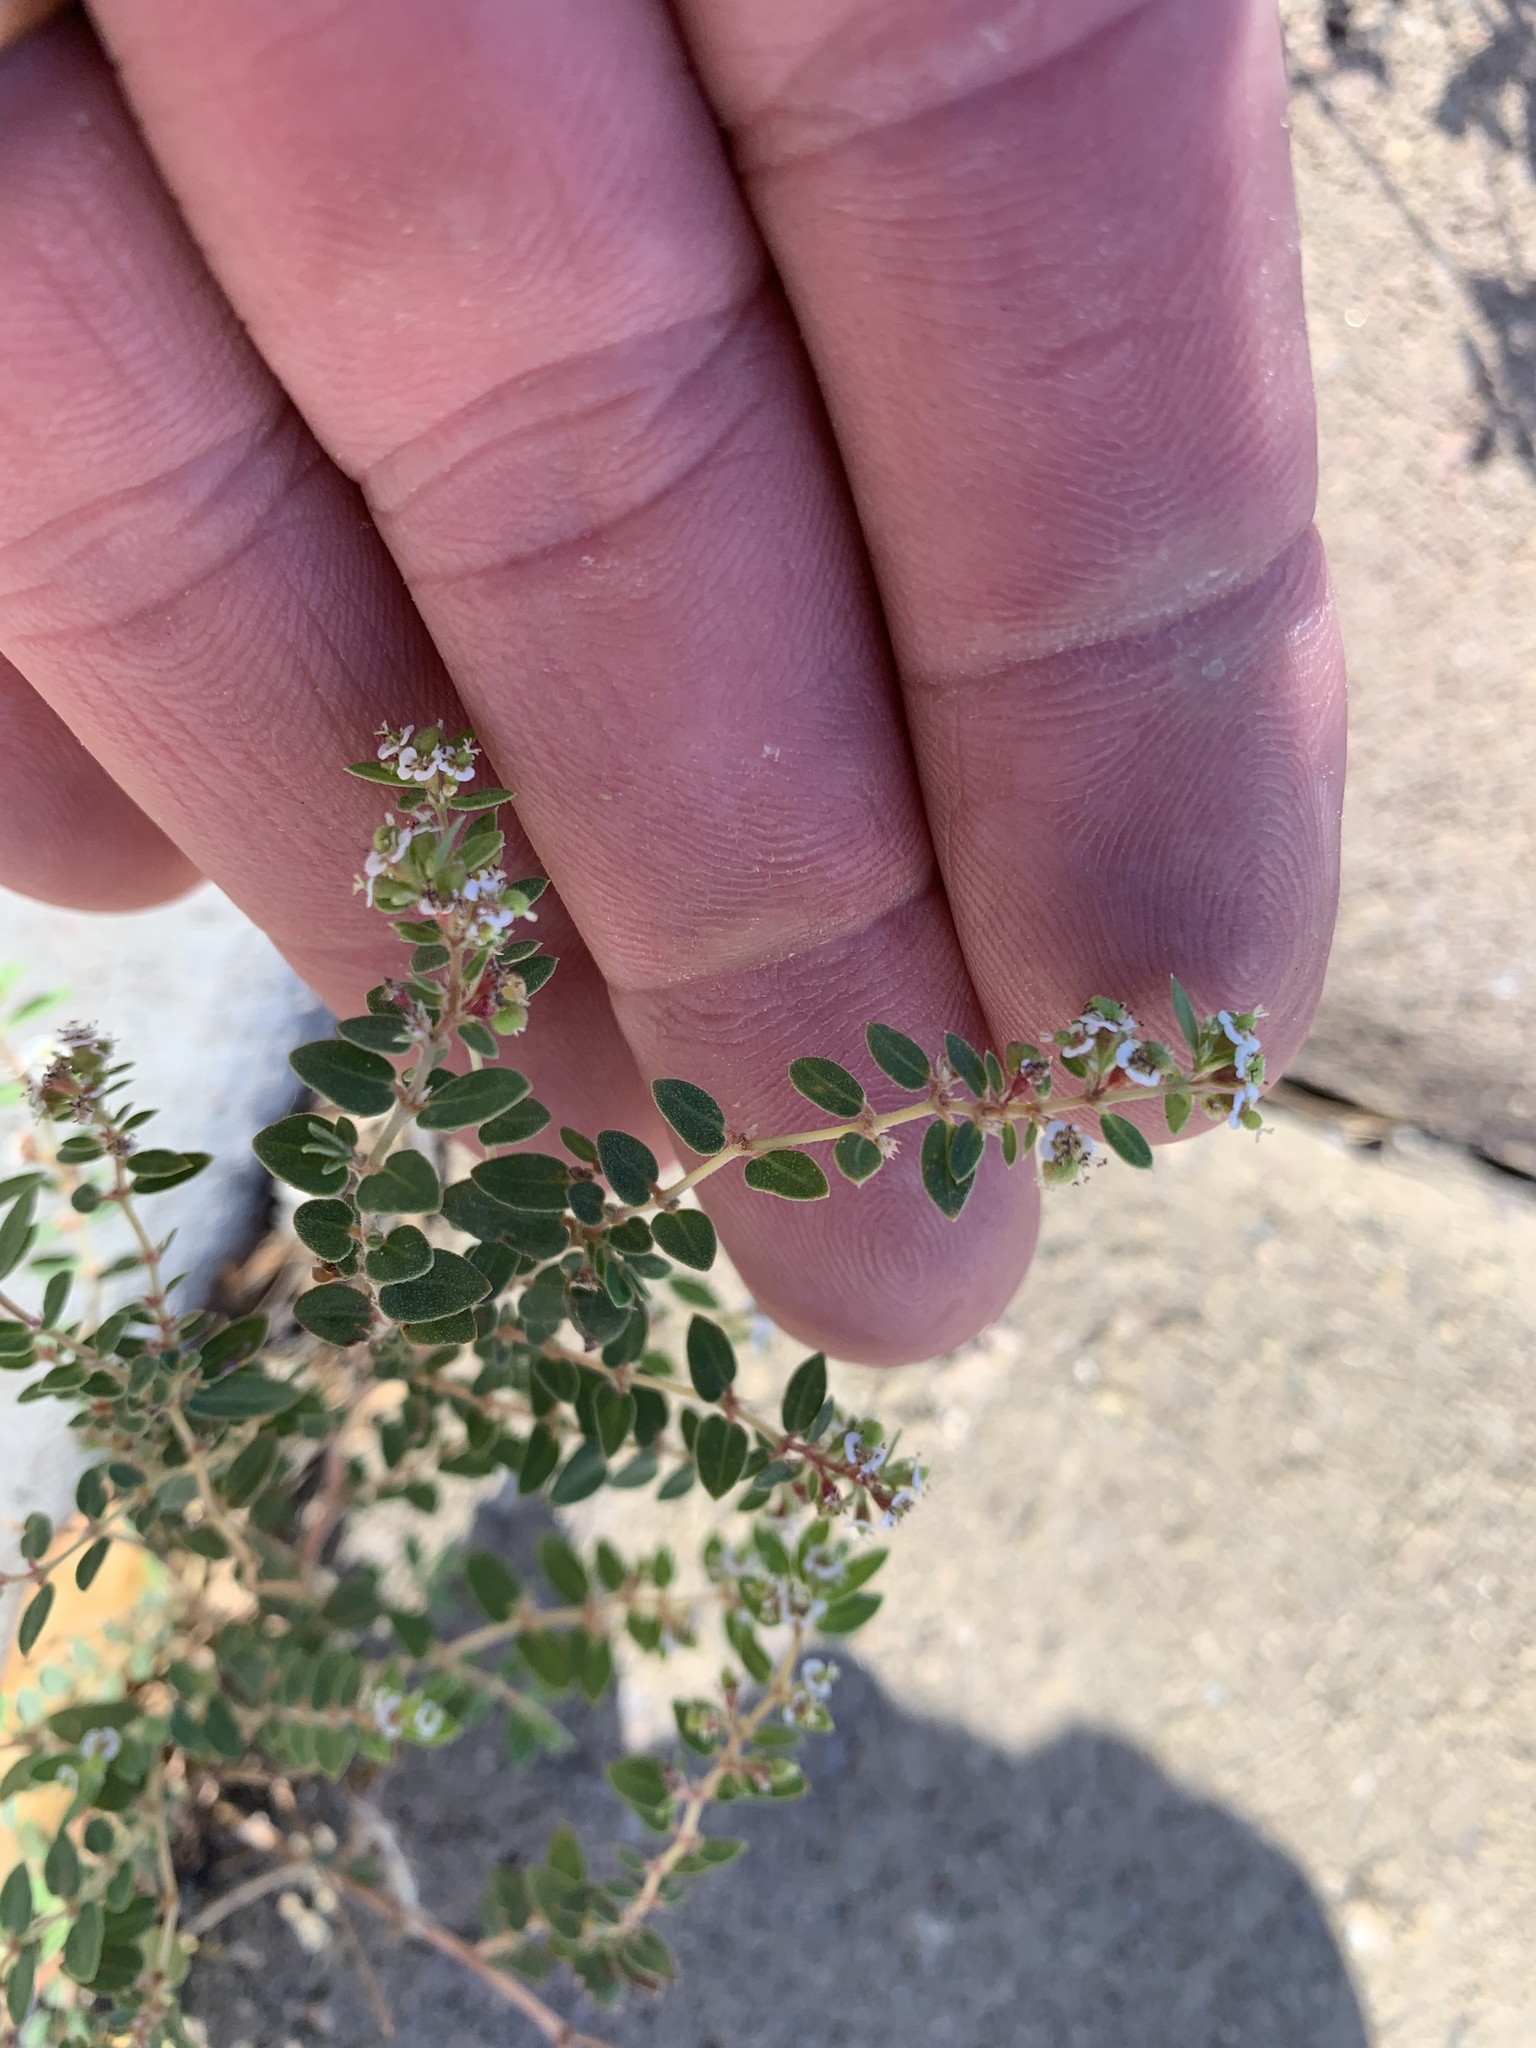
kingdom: Plantae
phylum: Tracheophyta
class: Magnoliopsida
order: Malpighiales
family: Euphorbiaceae
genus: Euphorbia
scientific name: Euphorbia capitellata
